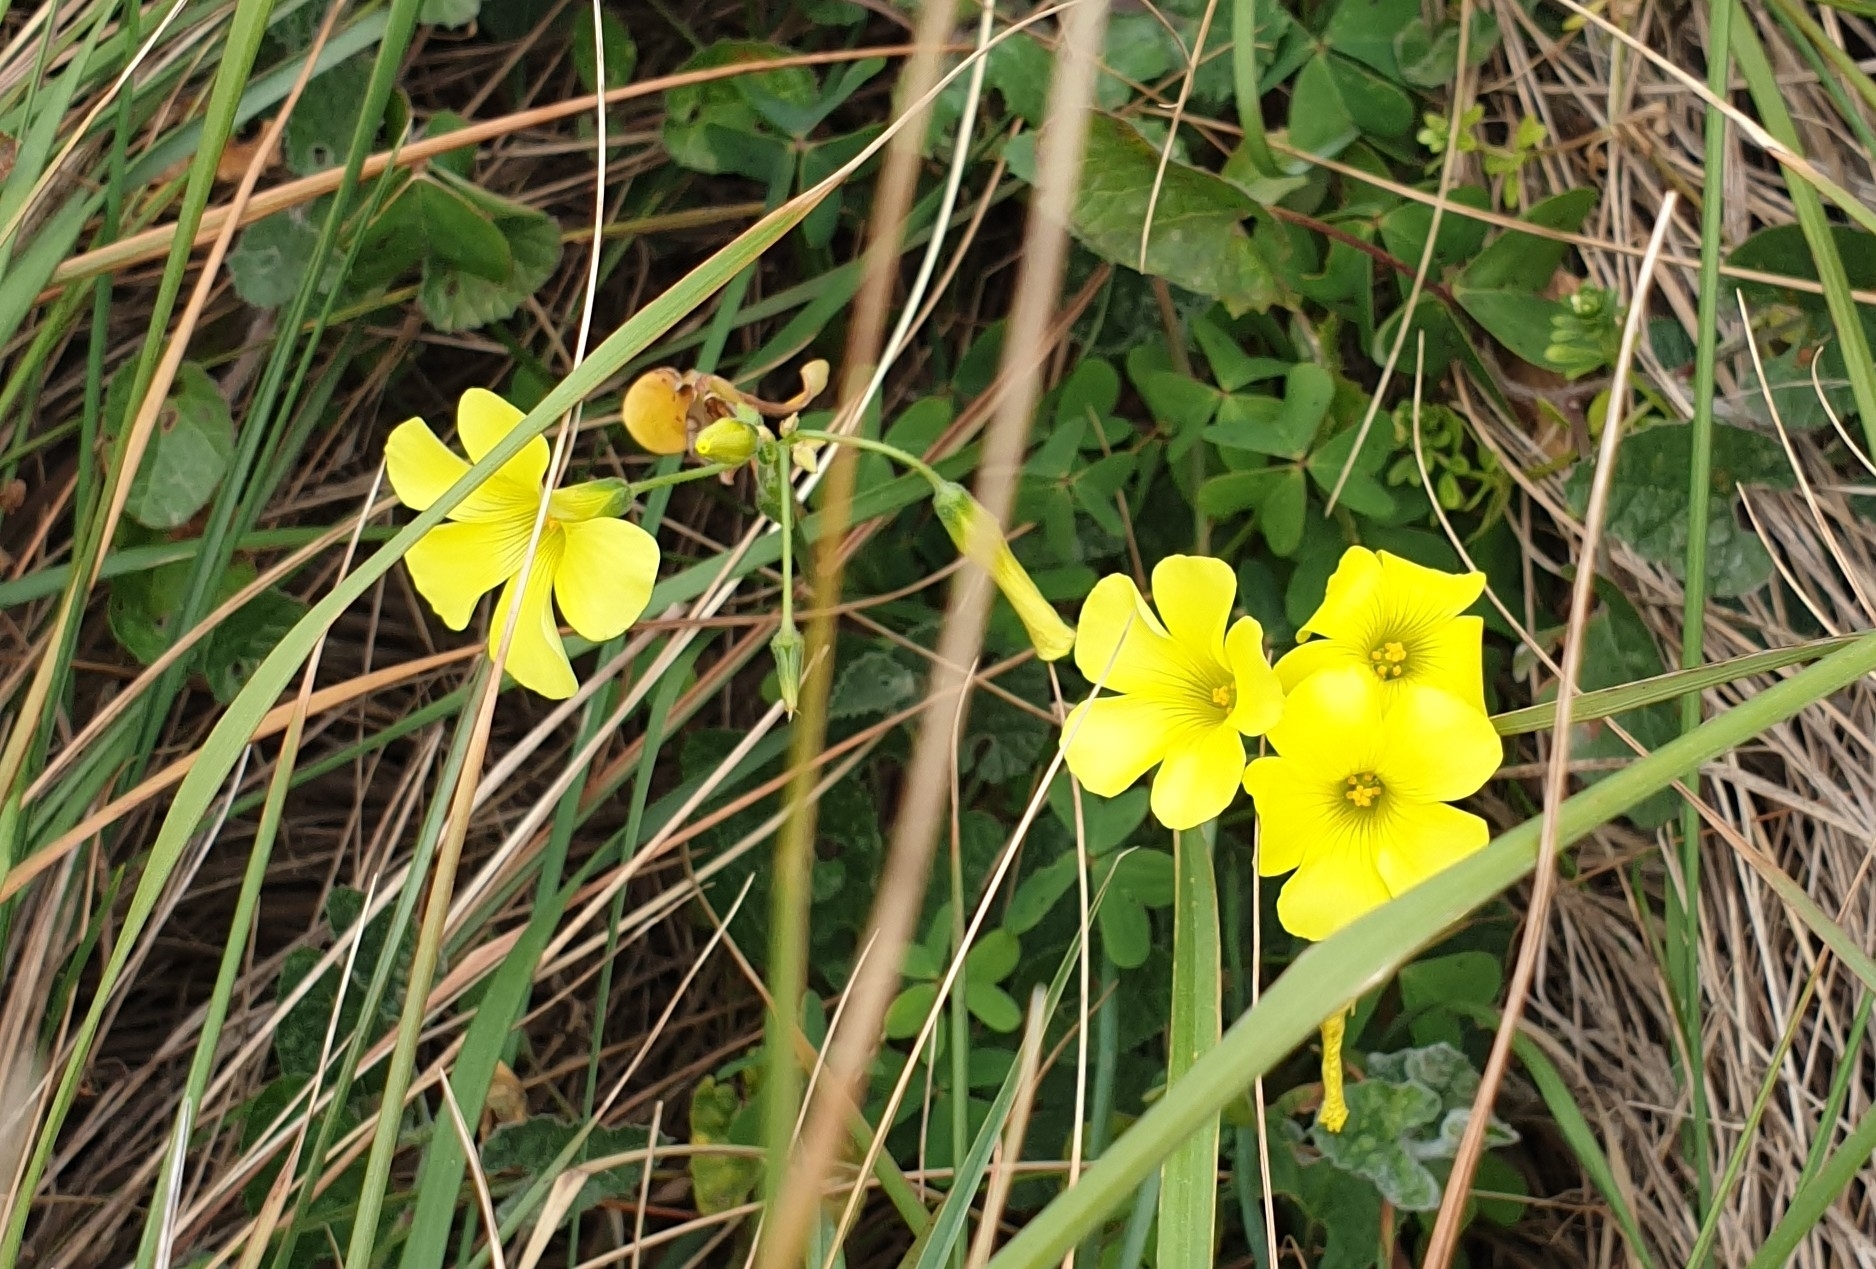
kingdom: Plantae
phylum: Tracheophyta
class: Magnoliopsida
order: Oxalidales
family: Oxalidaceae
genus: Oxalis
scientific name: Oxalis pes-caprae
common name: Bermuda-buttercup
